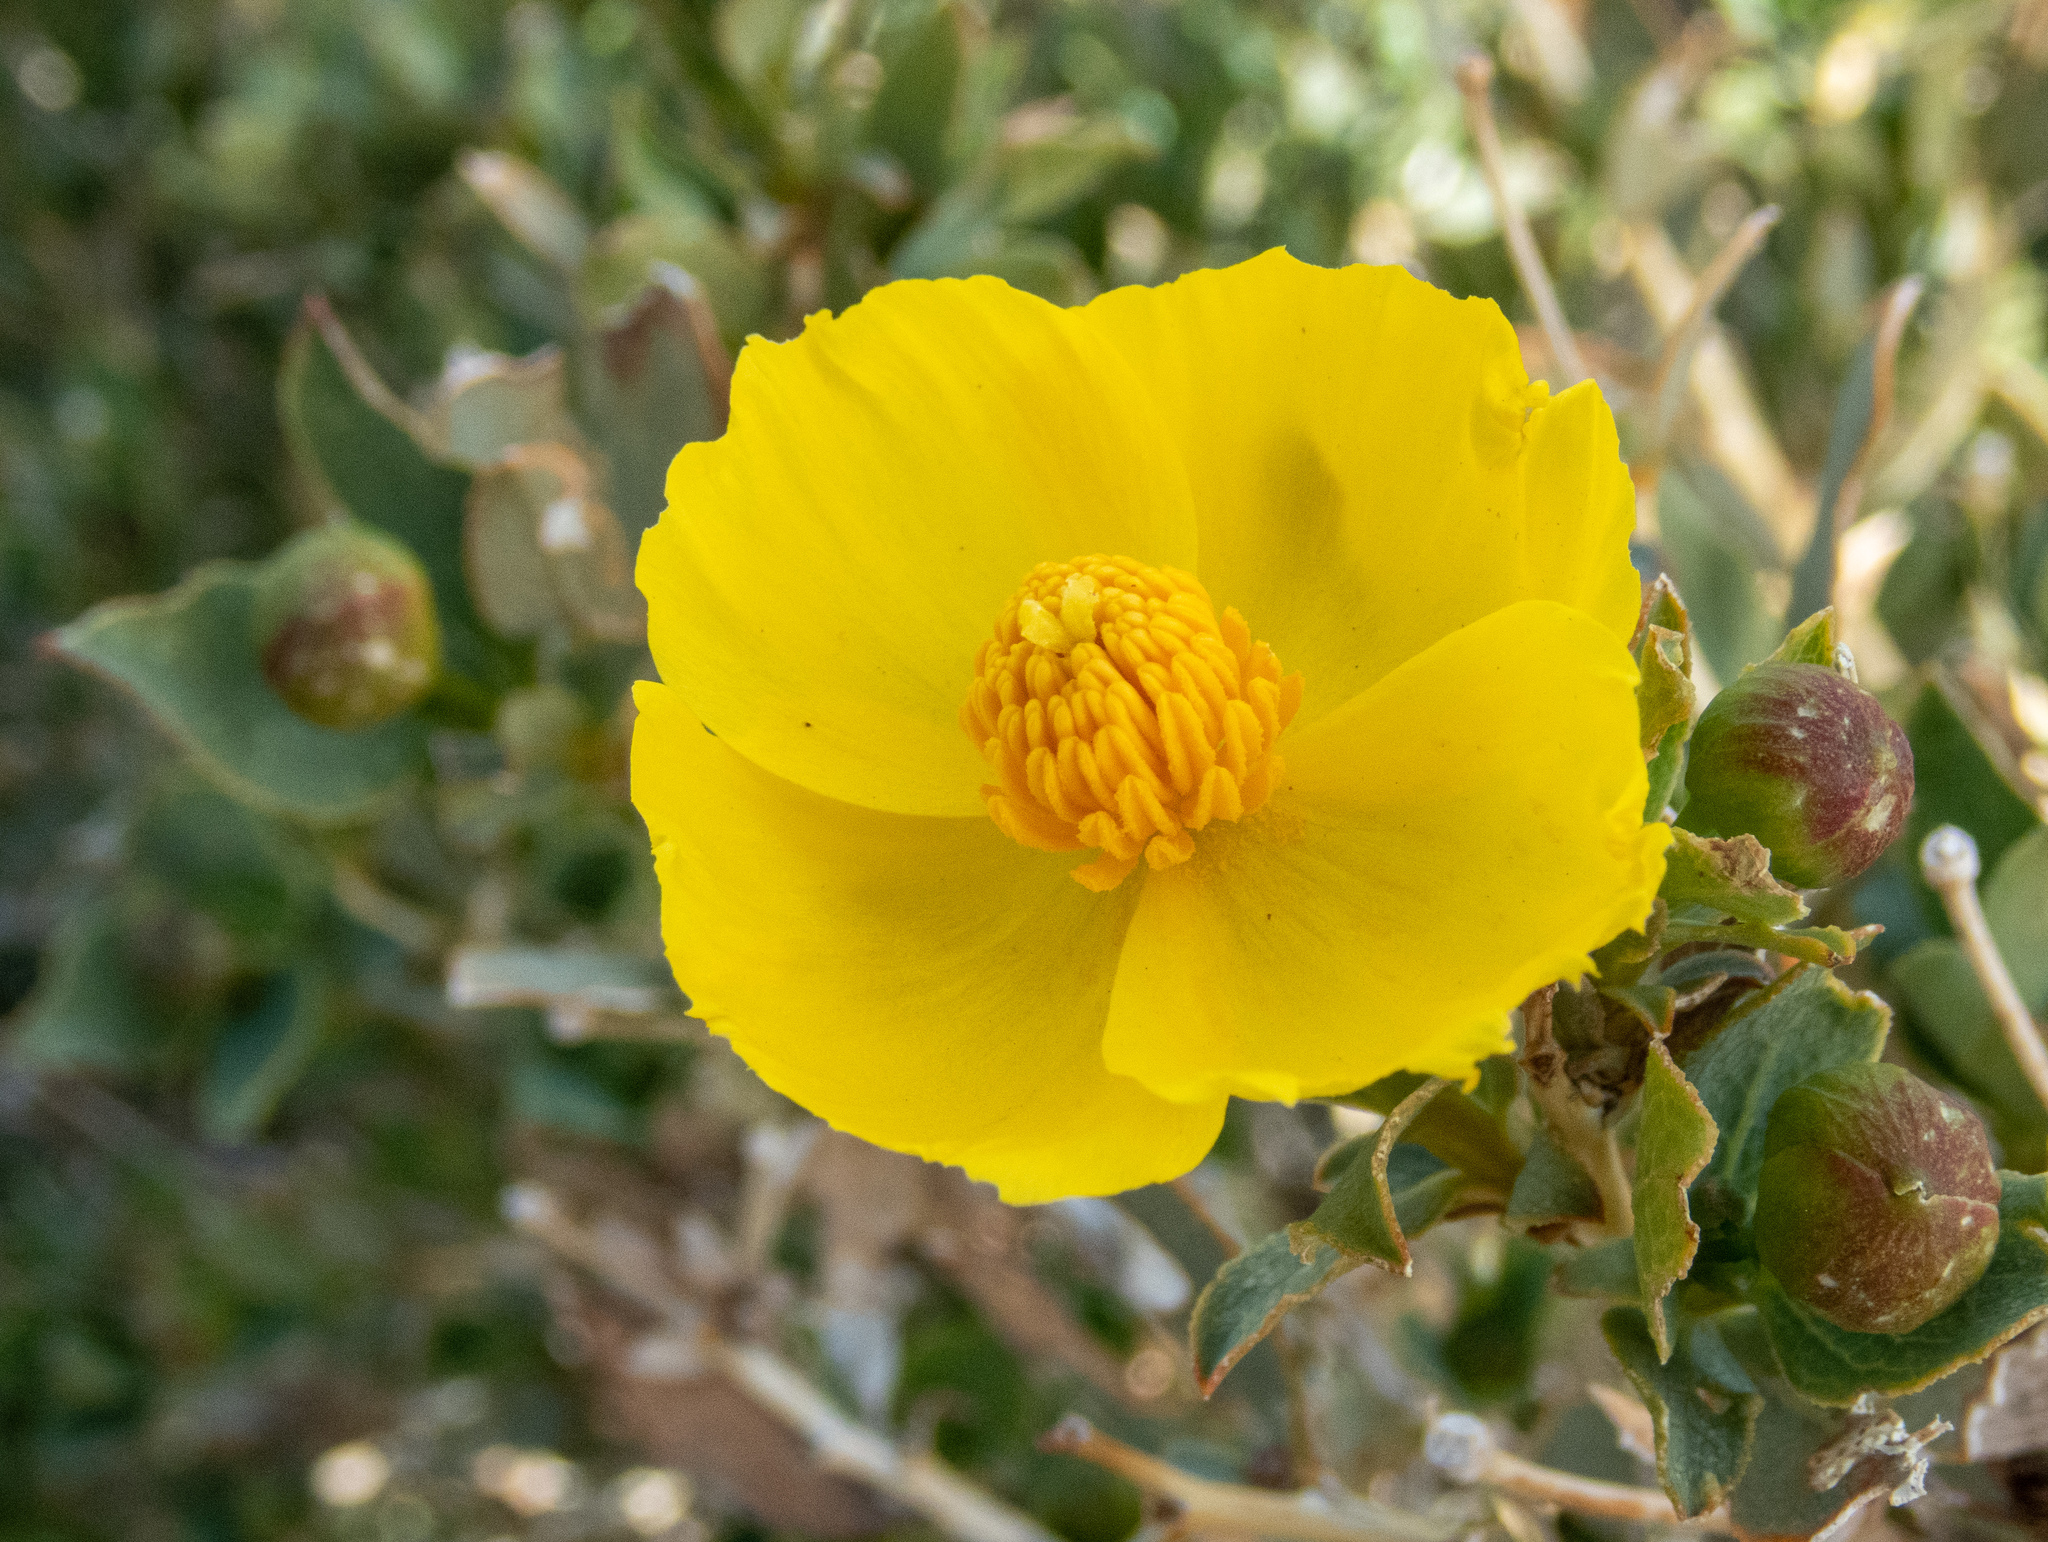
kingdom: Plantae
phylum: Tracheophyta
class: Magnoliopsida
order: Ranunculales
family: Papaveraceae
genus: Dendromecon
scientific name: Dendromecon rigida
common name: Tree poppy
